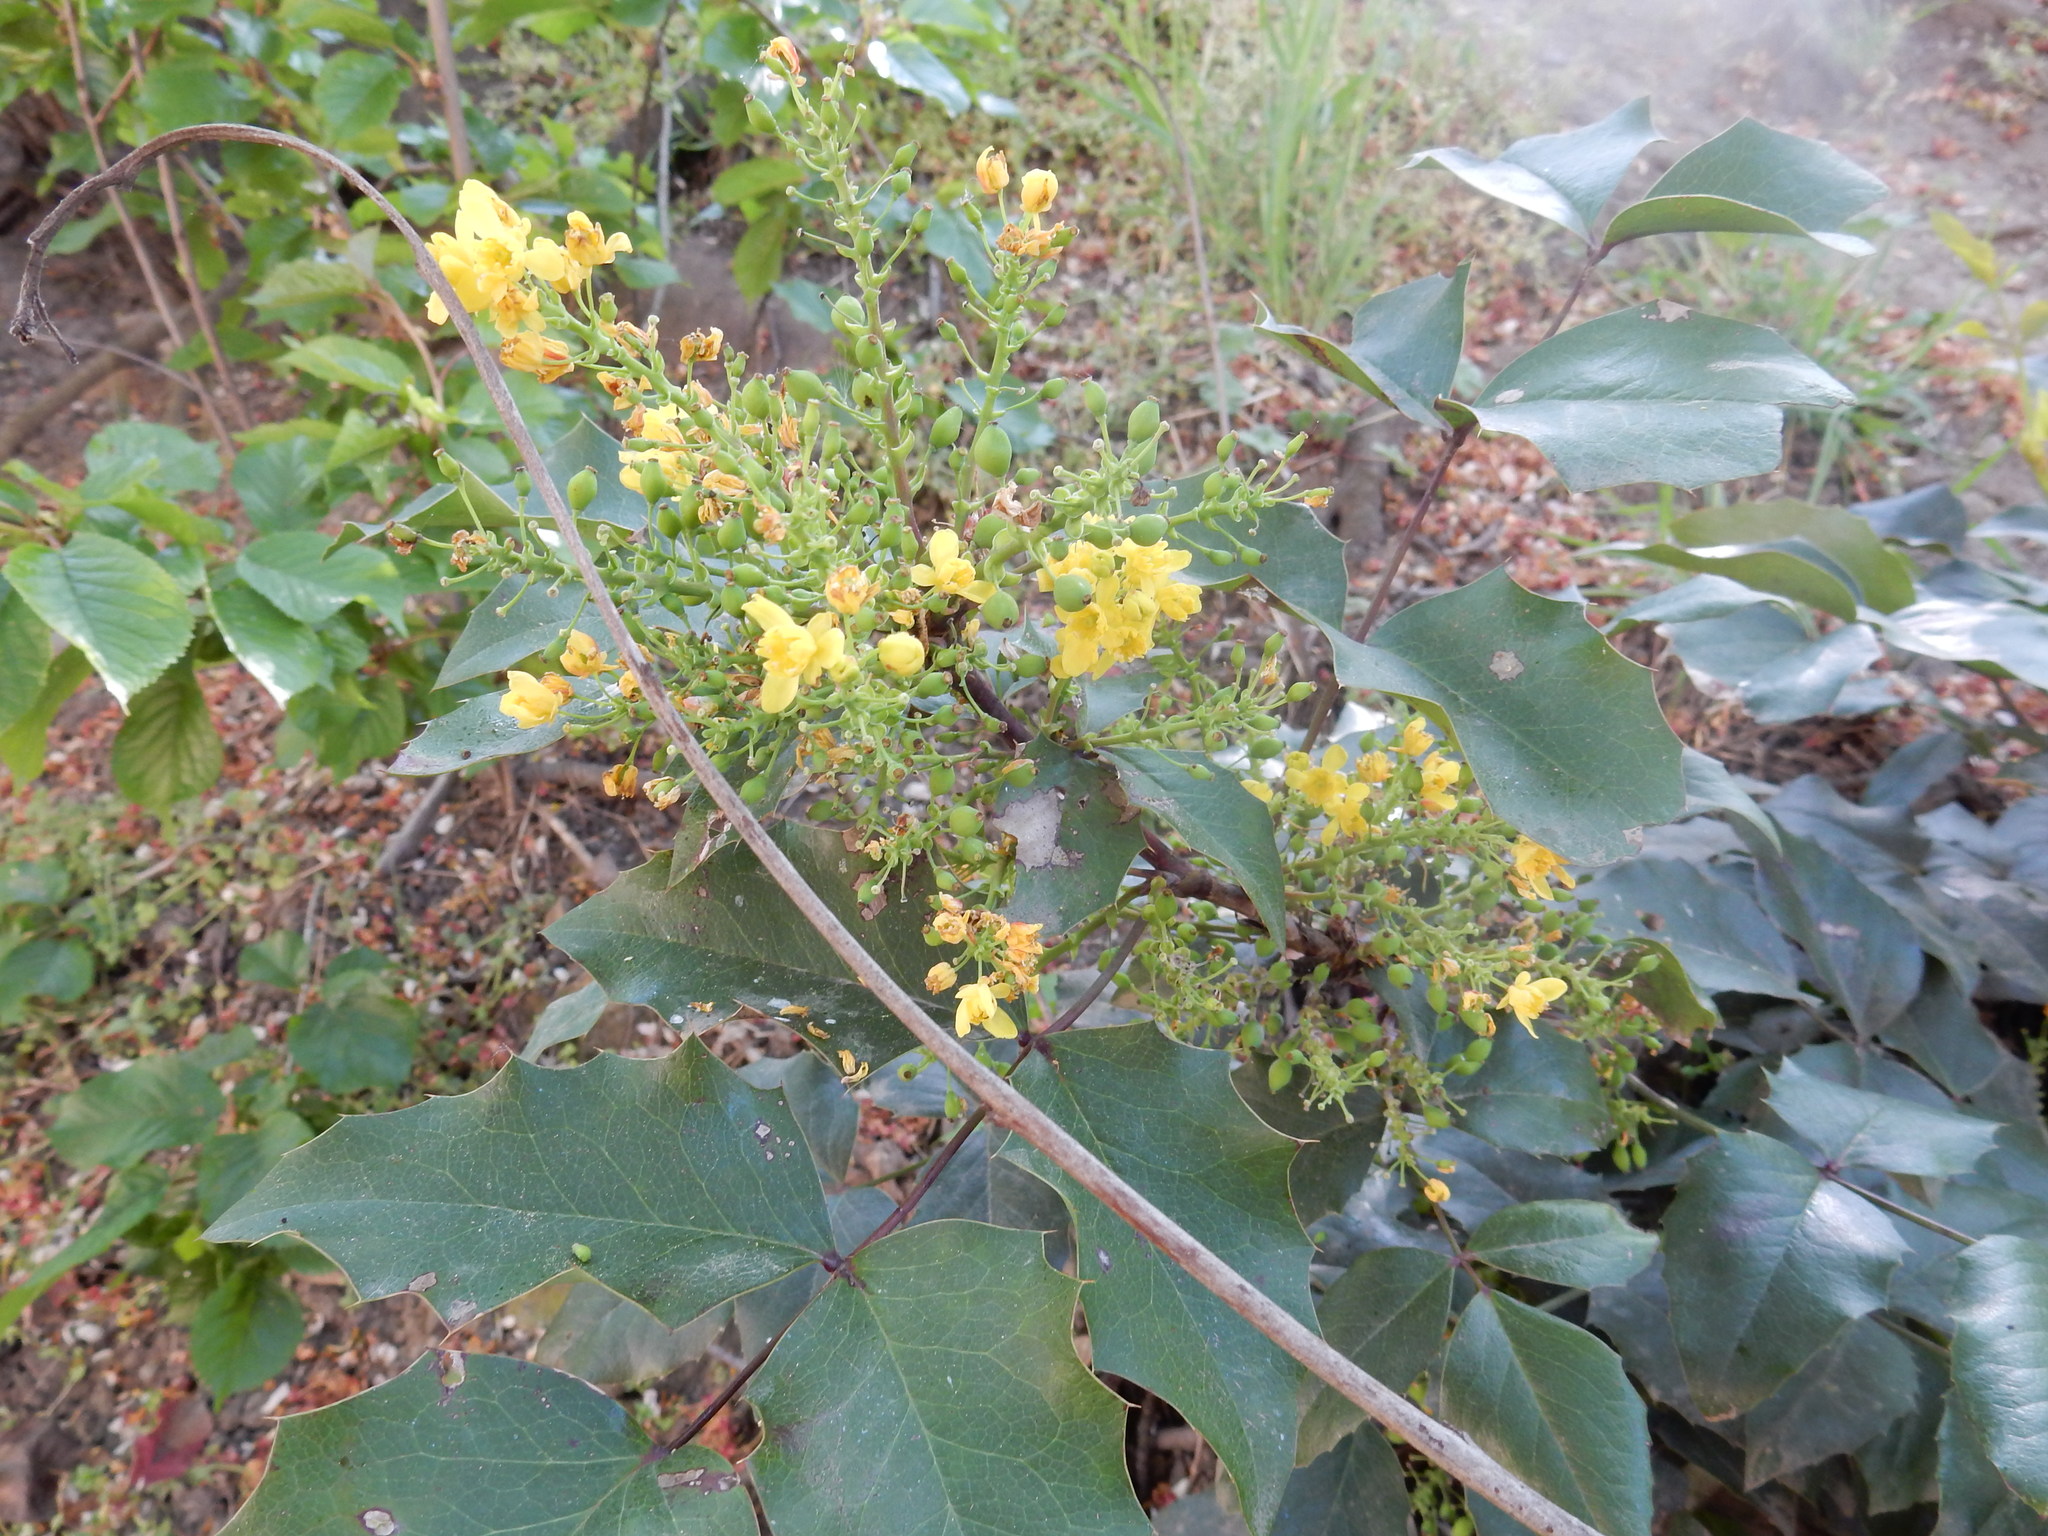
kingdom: Plantae
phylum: Tracheophyta
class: Magnoliopsida
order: Ranunculales
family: Berberidaceae
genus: Mahonia
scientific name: Mahonia aquifolium
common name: Oregon-grape
